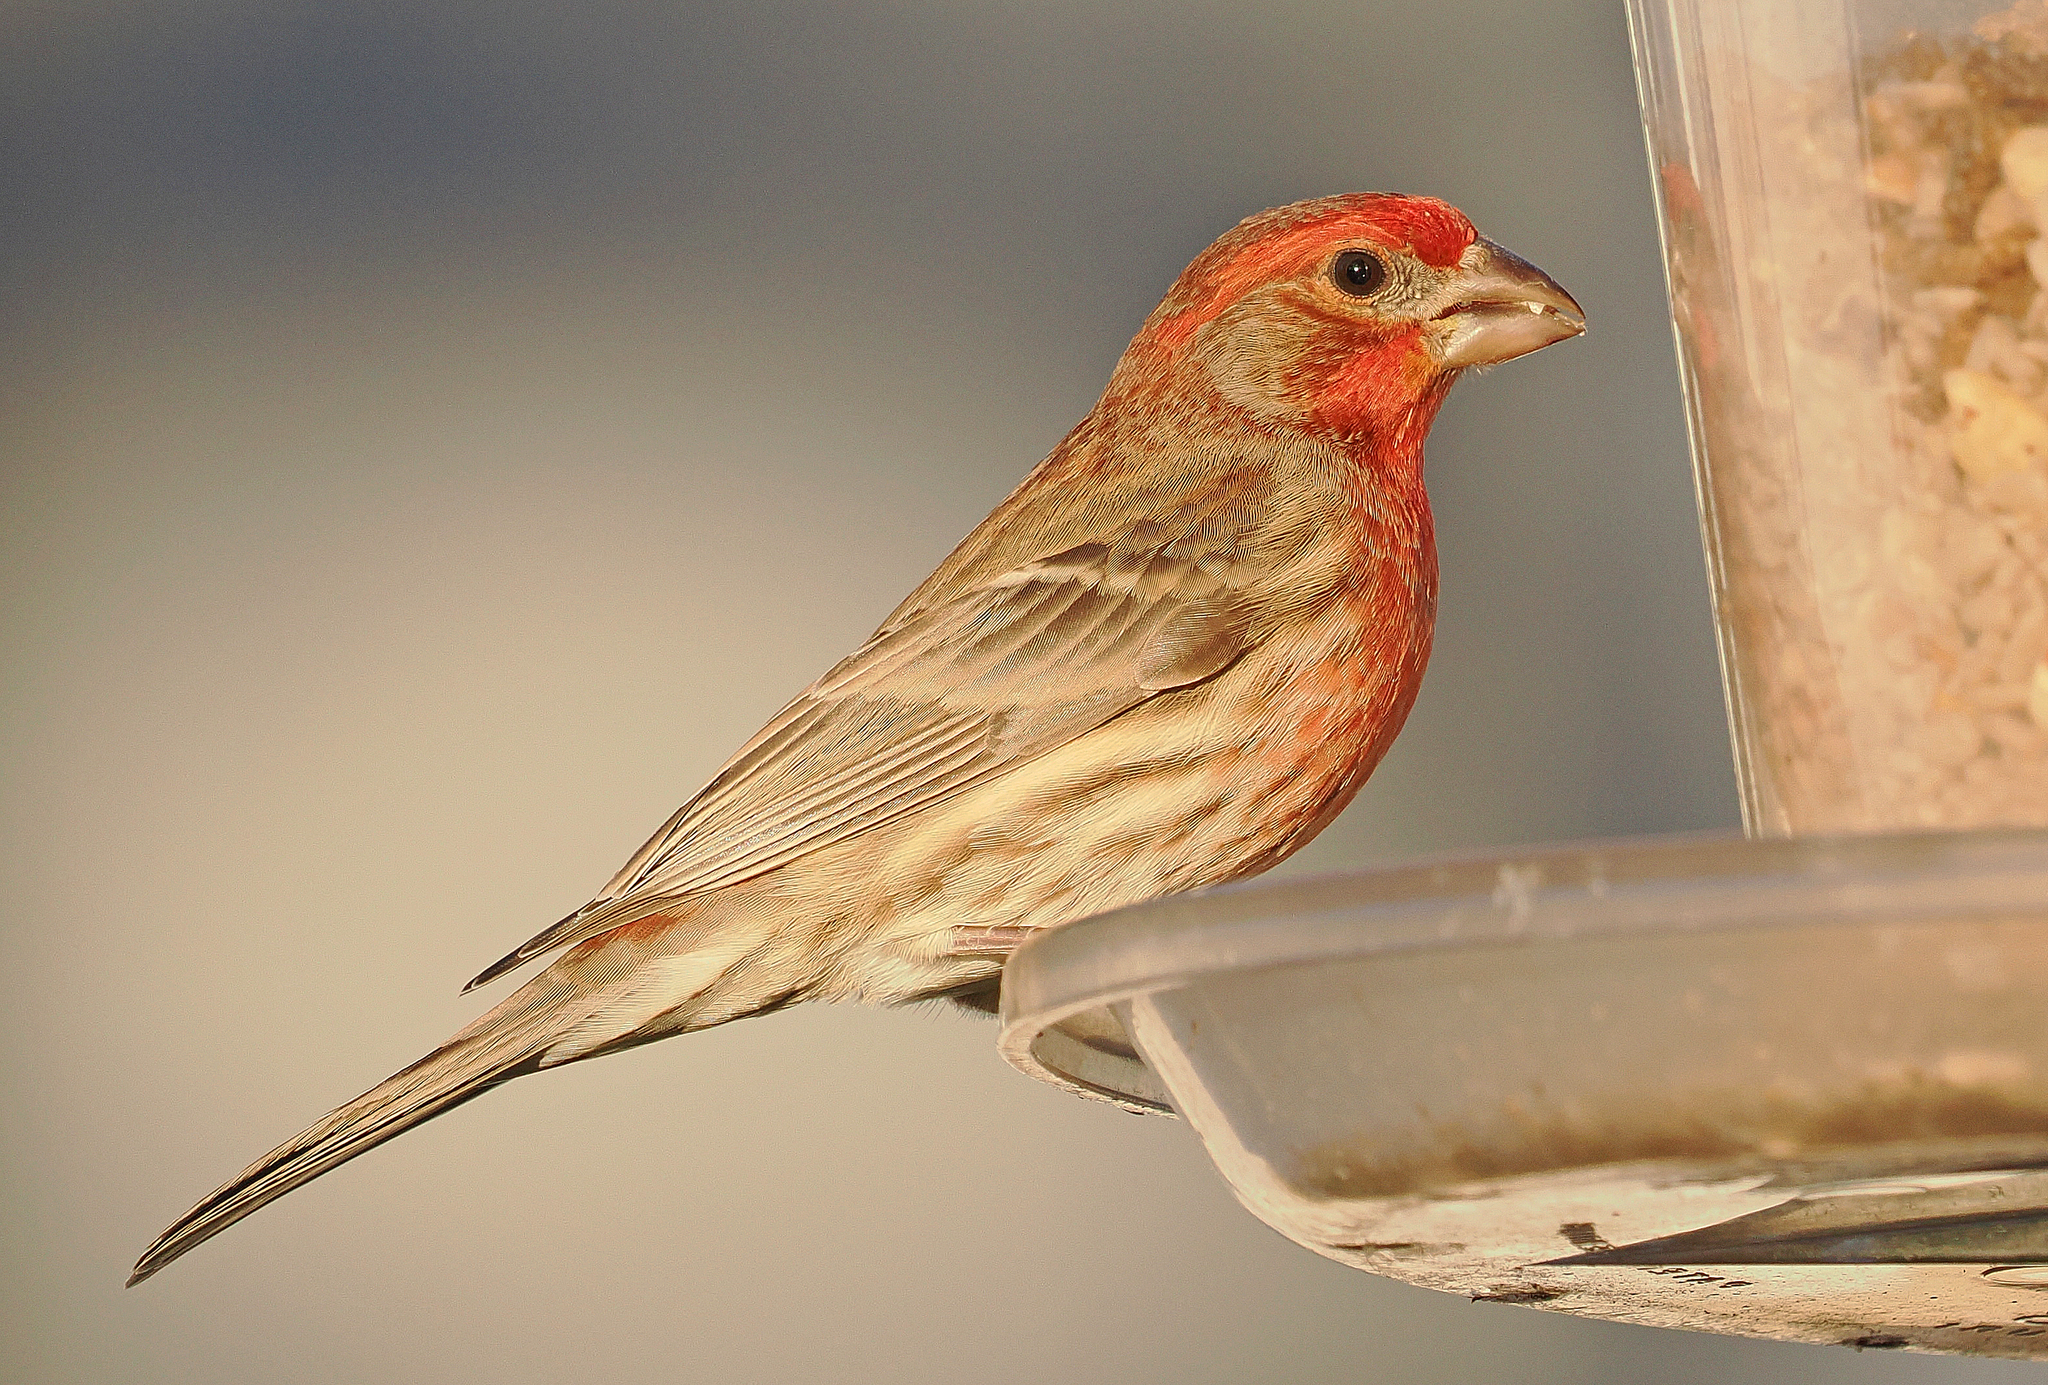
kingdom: Animalia
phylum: Chordata
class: Aves
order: Passeriformes
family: Fringillidae
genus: Haemorhous
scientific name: Haemorhous mexicanus
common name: House finch
